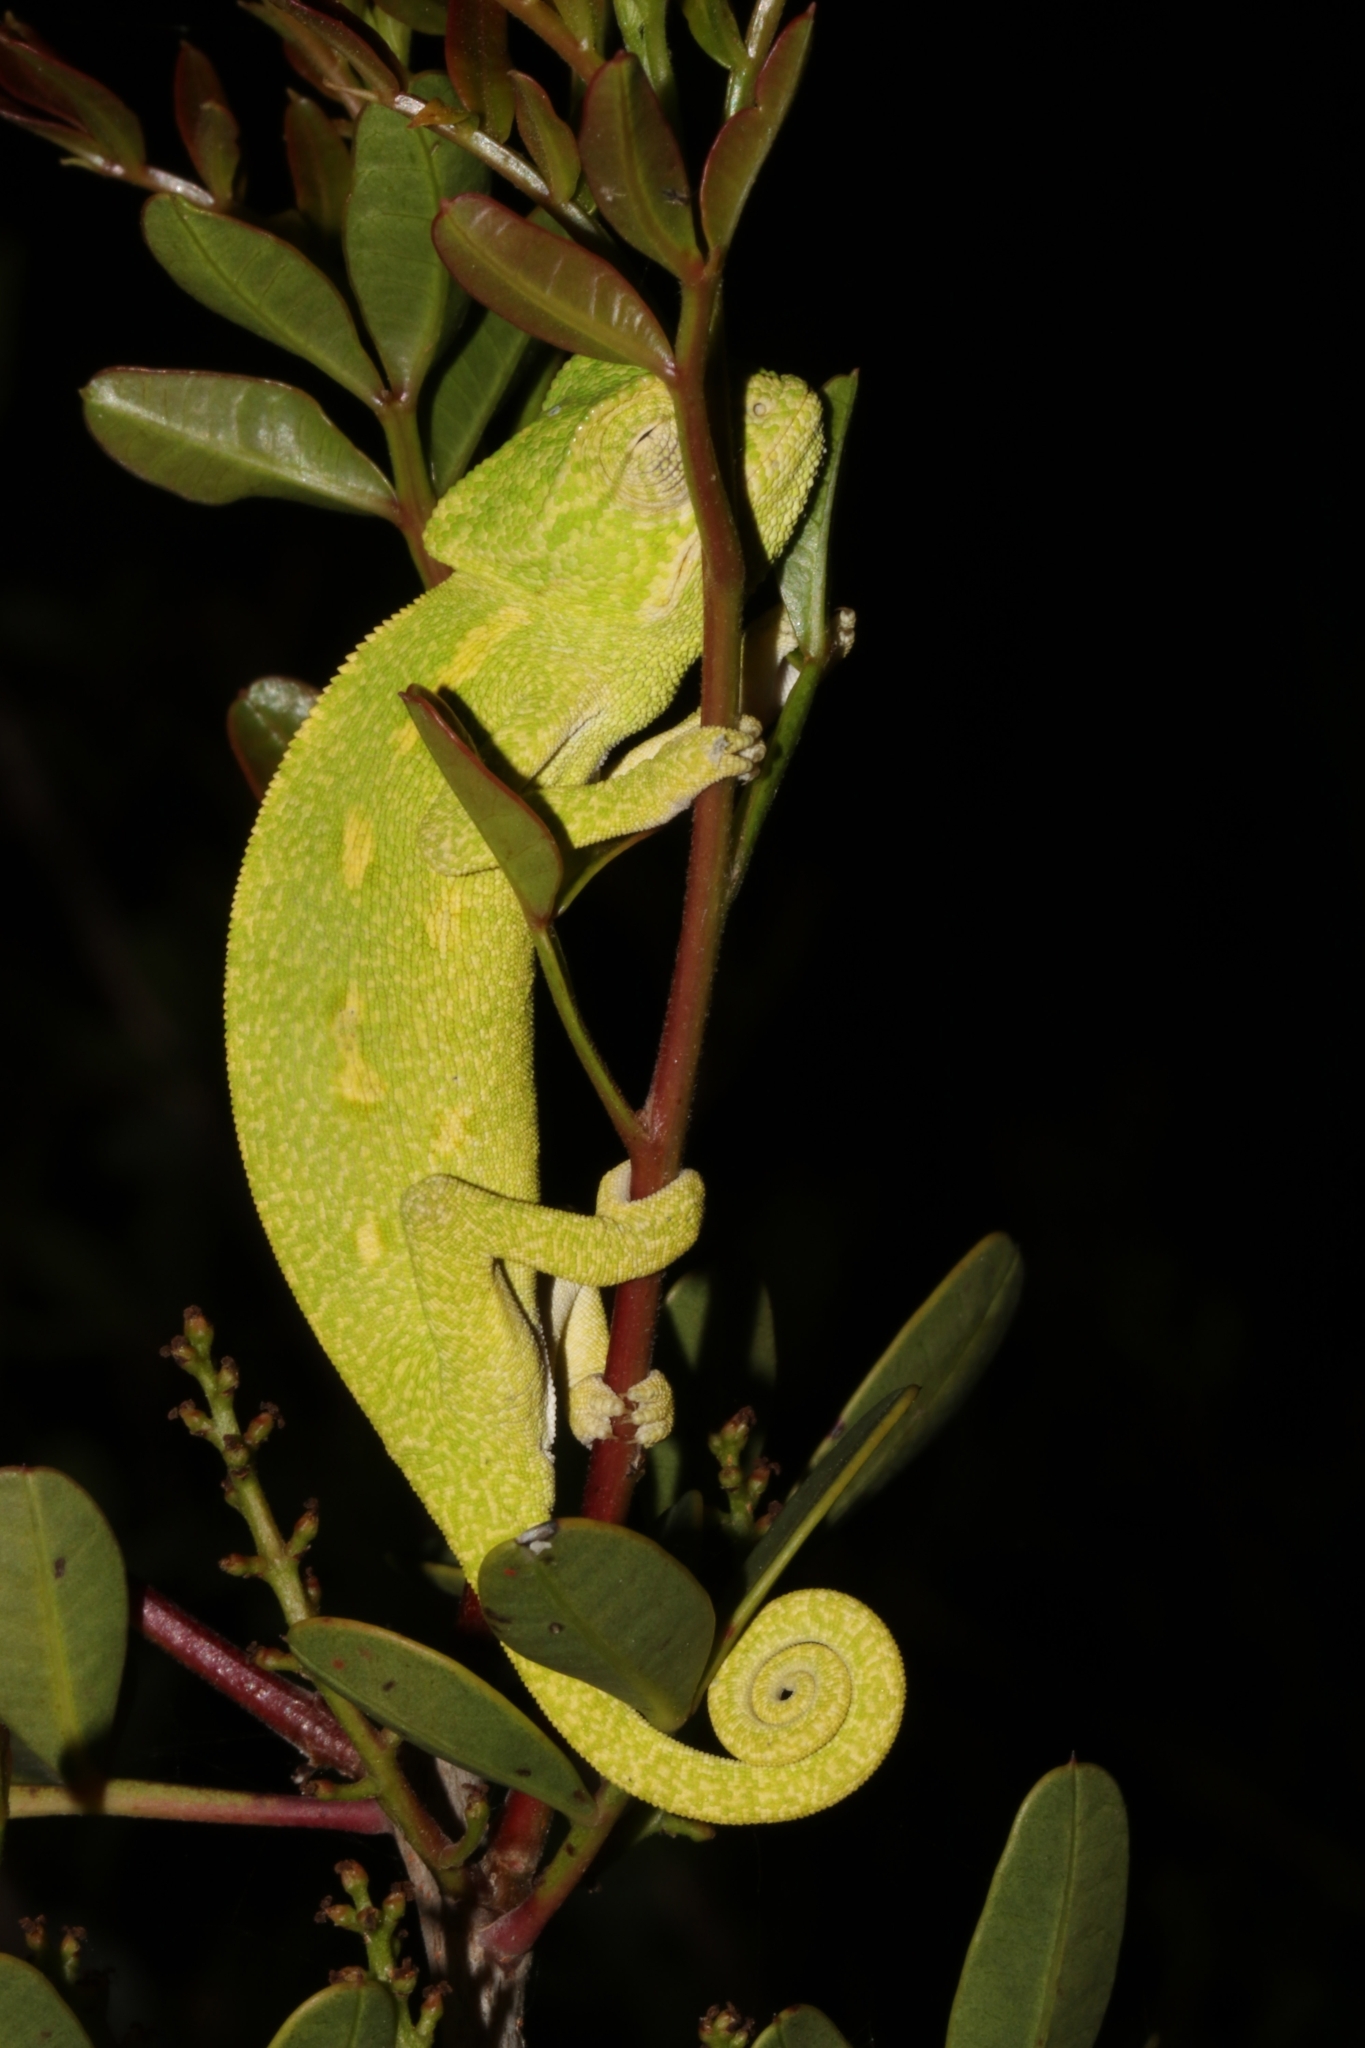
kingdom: Animalia
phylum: Chordata
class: Squamata
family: Chamaeleonidae
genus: Chamaeleo
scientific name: Chamaeleo africanus
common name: African chameleon
